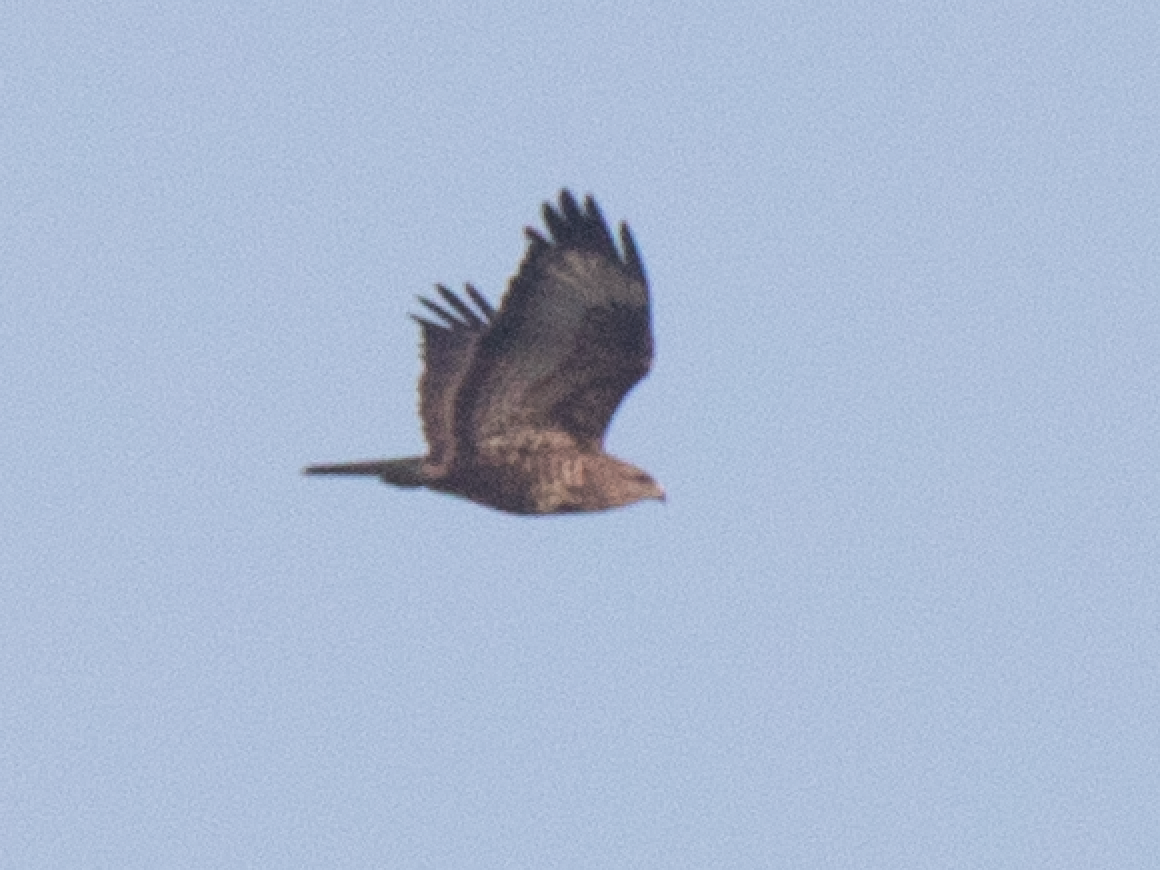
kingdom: Animalia
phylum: Chordata
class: Aves
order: Accipitriformes
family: Accipitridae
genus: Buteo
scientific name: Buteo buteo
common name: Common buzzard
